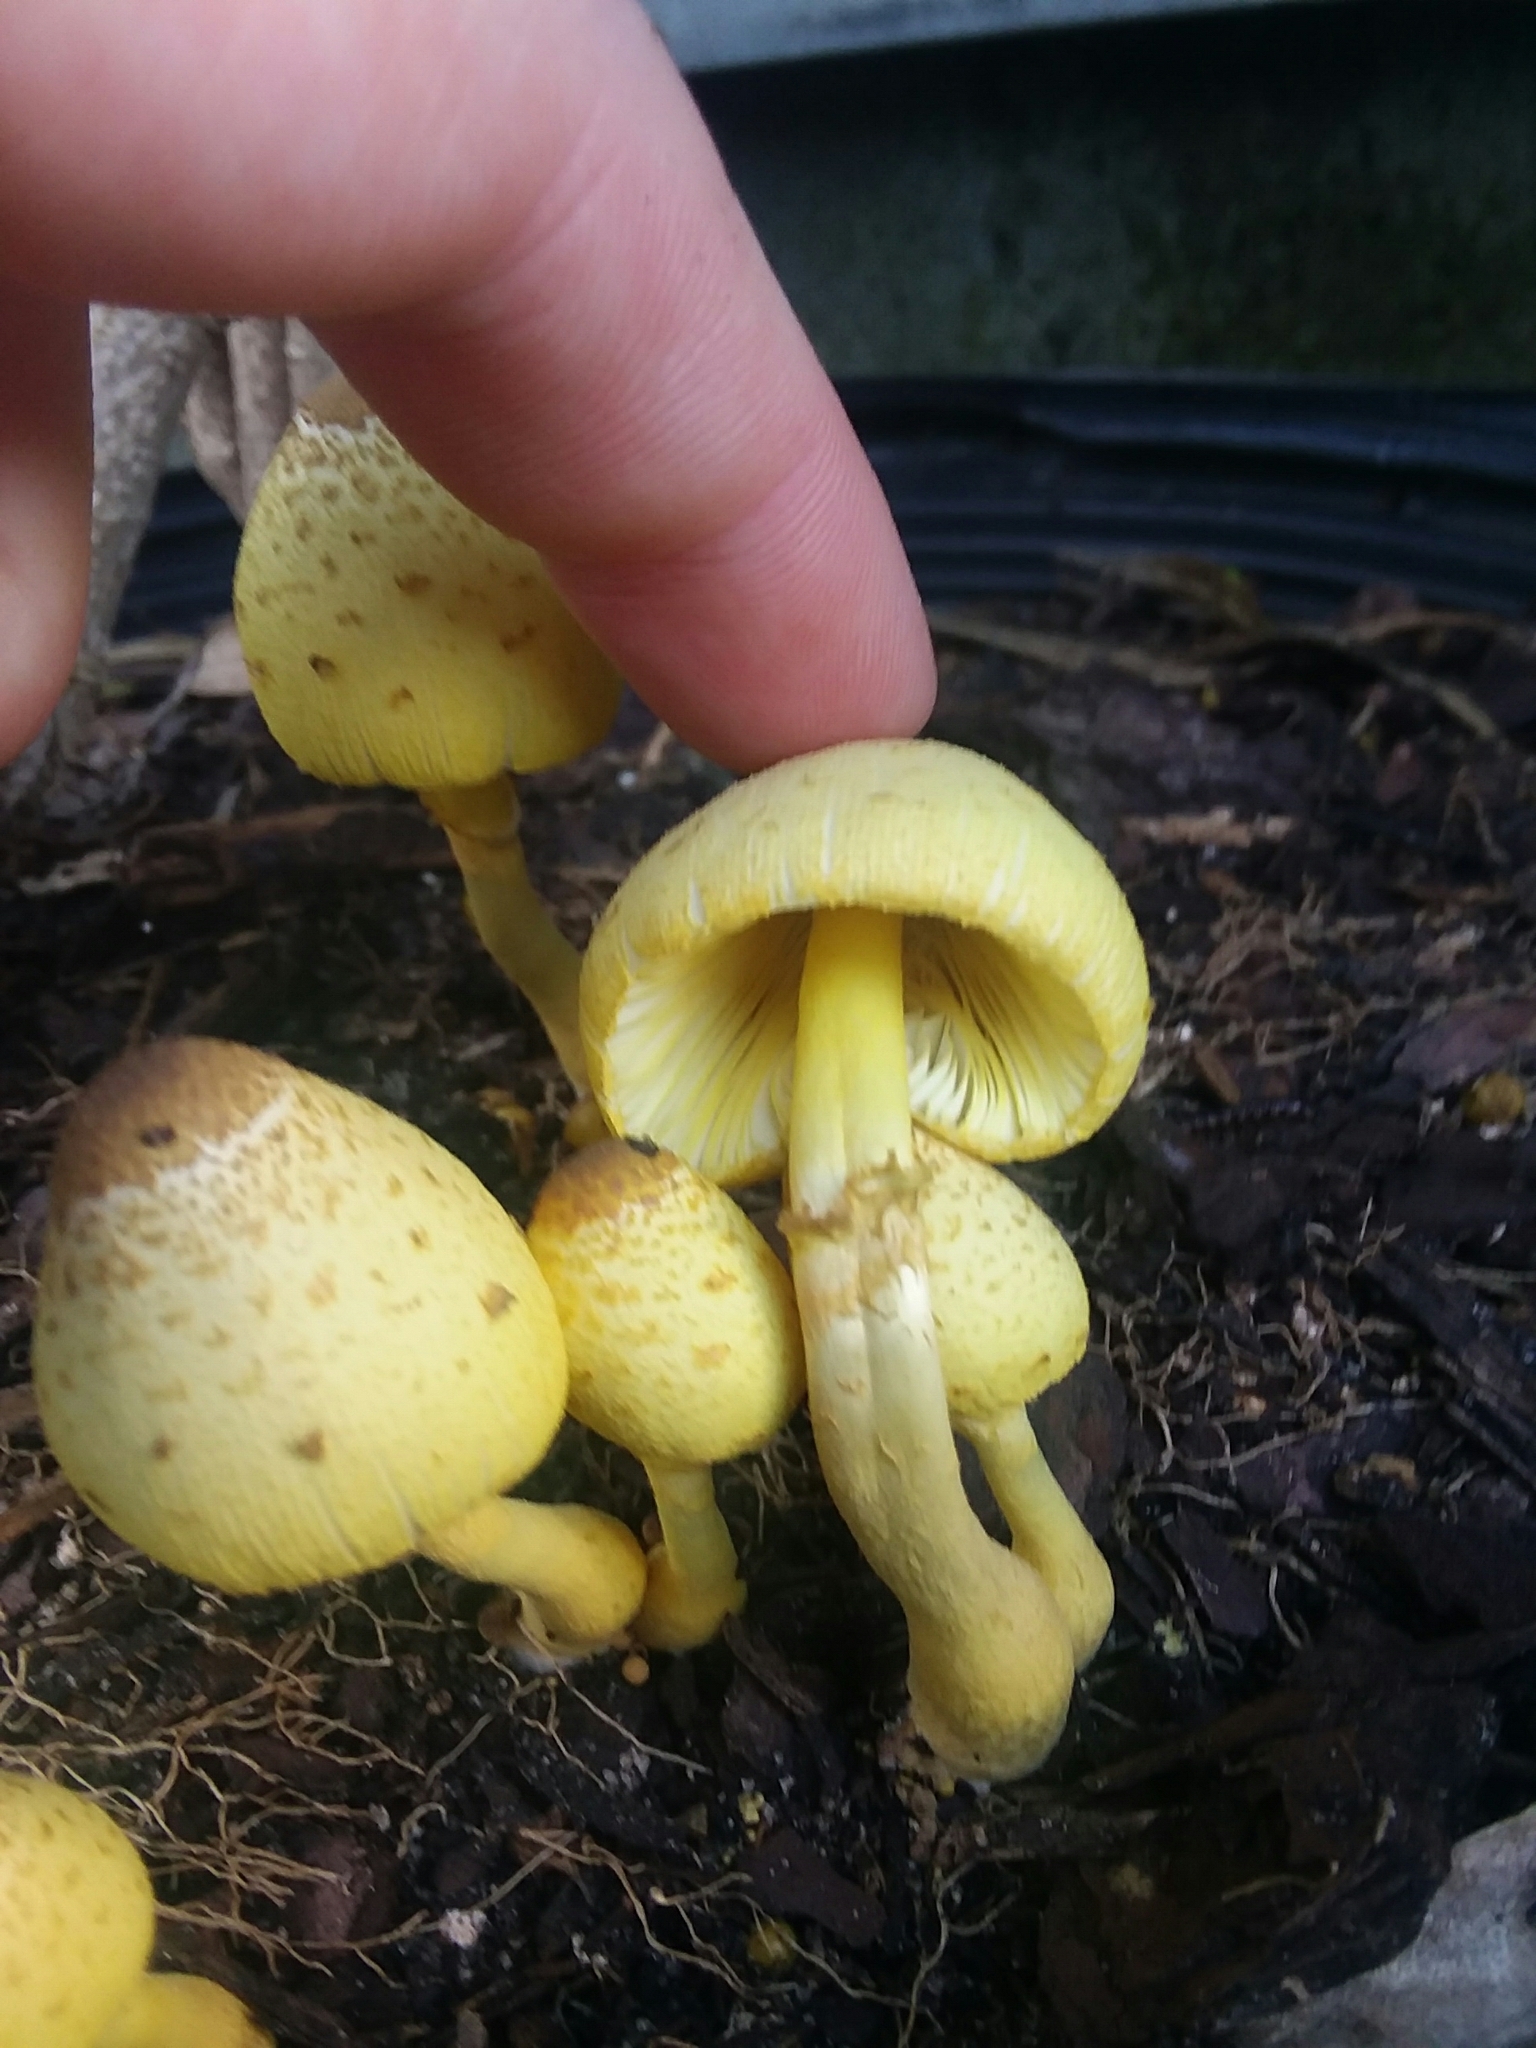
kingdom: Fungi
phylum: Basidiomycota
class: Agaricomycetes
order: Agaricales
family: Agaricaceae
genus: Leucocoprinus
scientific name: Leucocoprinus birnbaumii
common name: Plantpot dapperling
